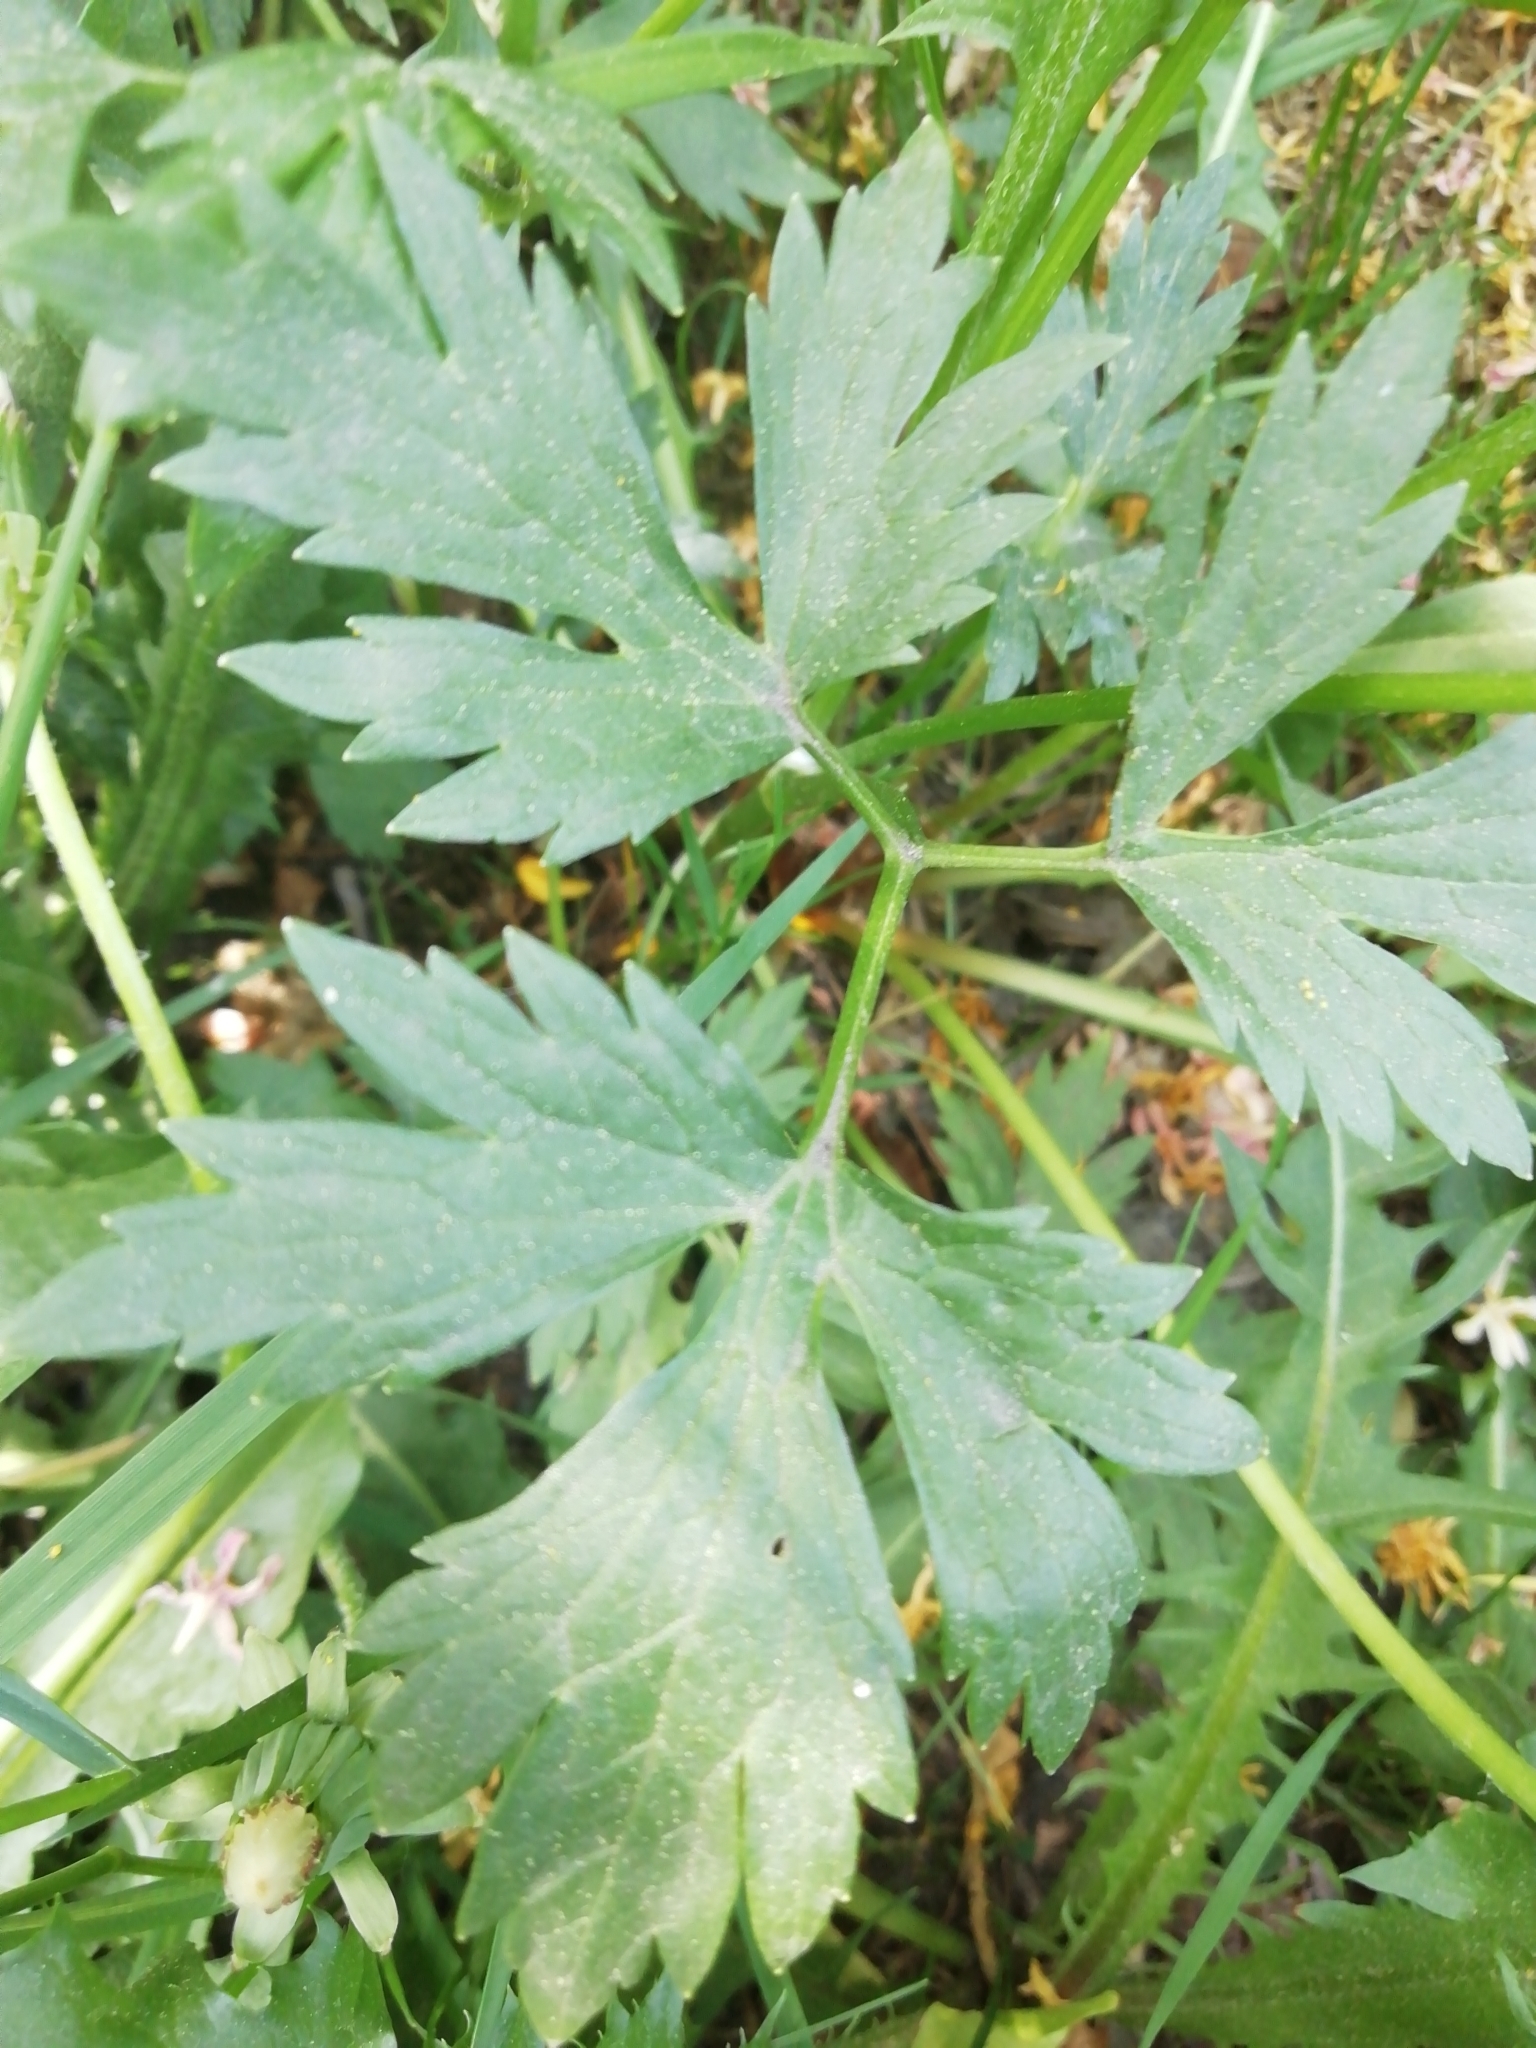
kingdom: Plantae
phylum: Tracheophyta
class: Magnoliopsida
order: Ranunculales
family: Ranunculaceae
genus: Ranunculus
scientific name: Ranunculus repens
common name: Creeping buttercup
